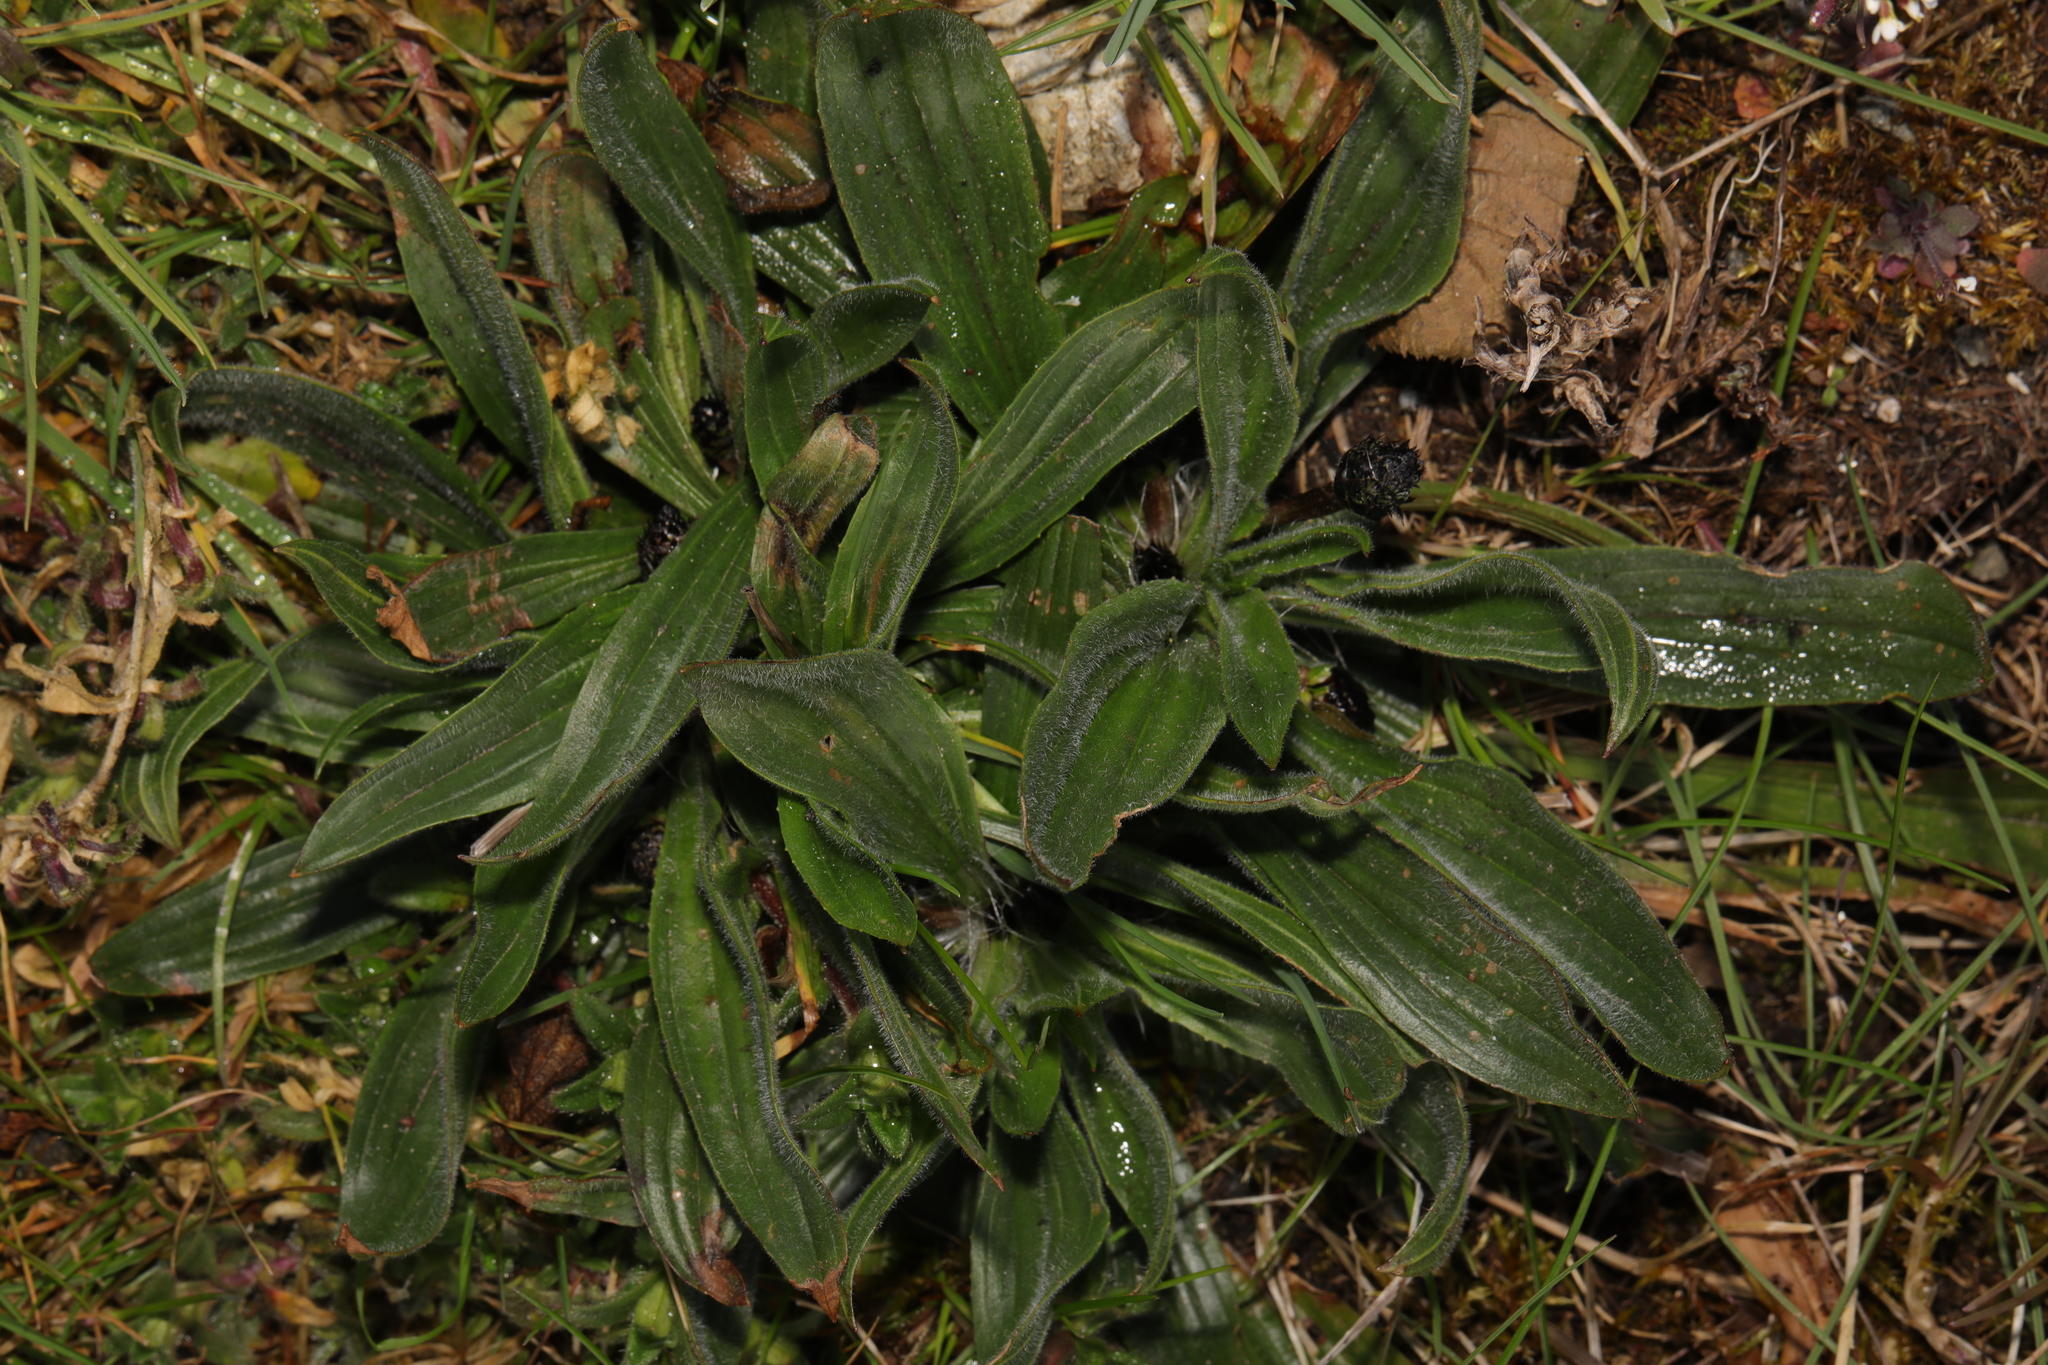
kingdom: Plantae
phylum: Tracheophyta
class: Magnoliopsida
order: Lamiales
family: Plantaginaceae
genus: Plantago
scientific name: Plantago lanceolata
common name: Ribwort plantain
